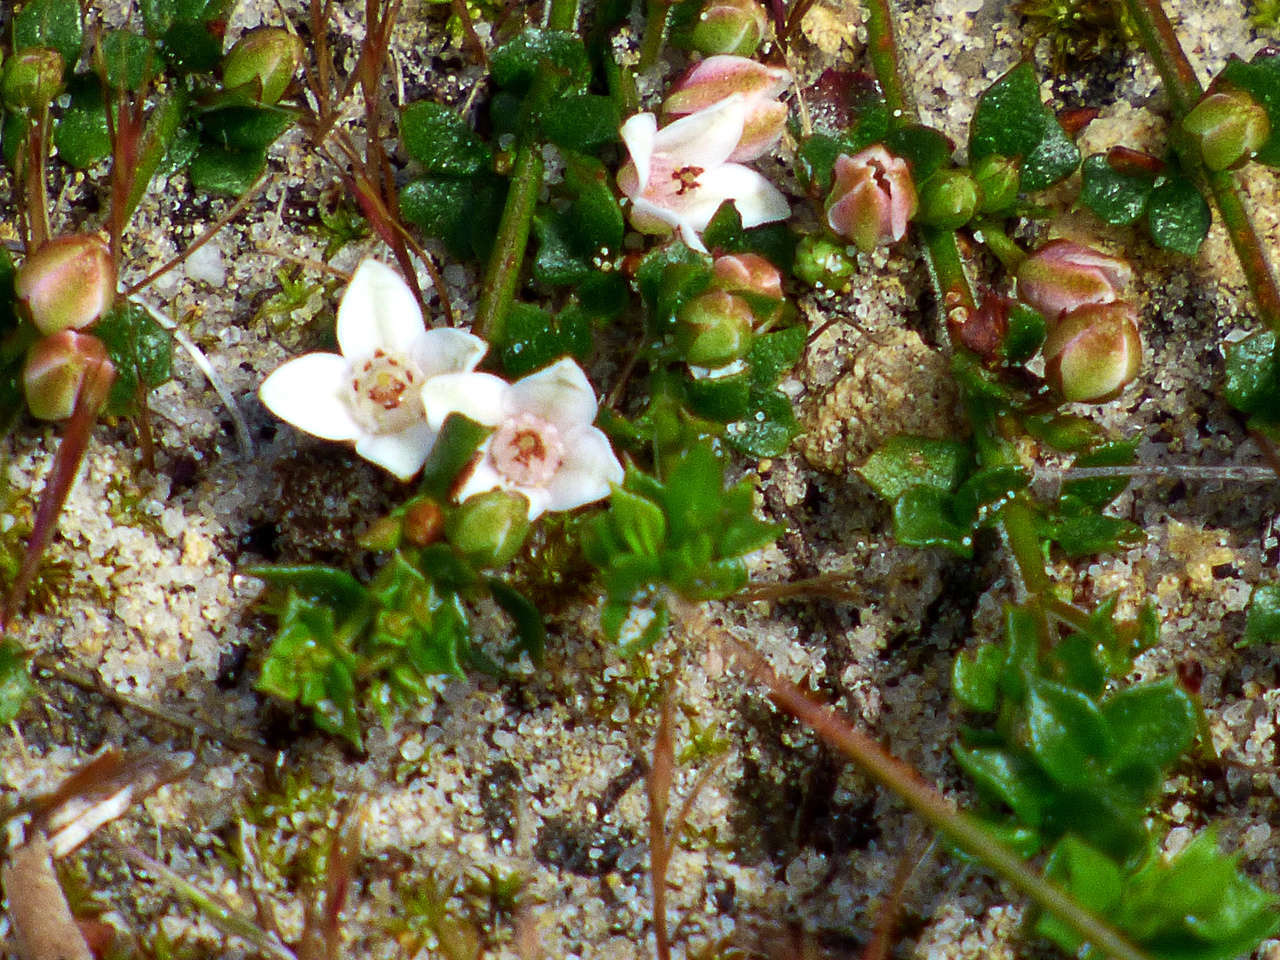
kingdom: Plantae
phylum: Tracheophyta
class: Magnoliopsida
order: Sapindales
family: Rutaceae
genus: Cyanothamnus
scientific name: Cyanothamnus nanus
